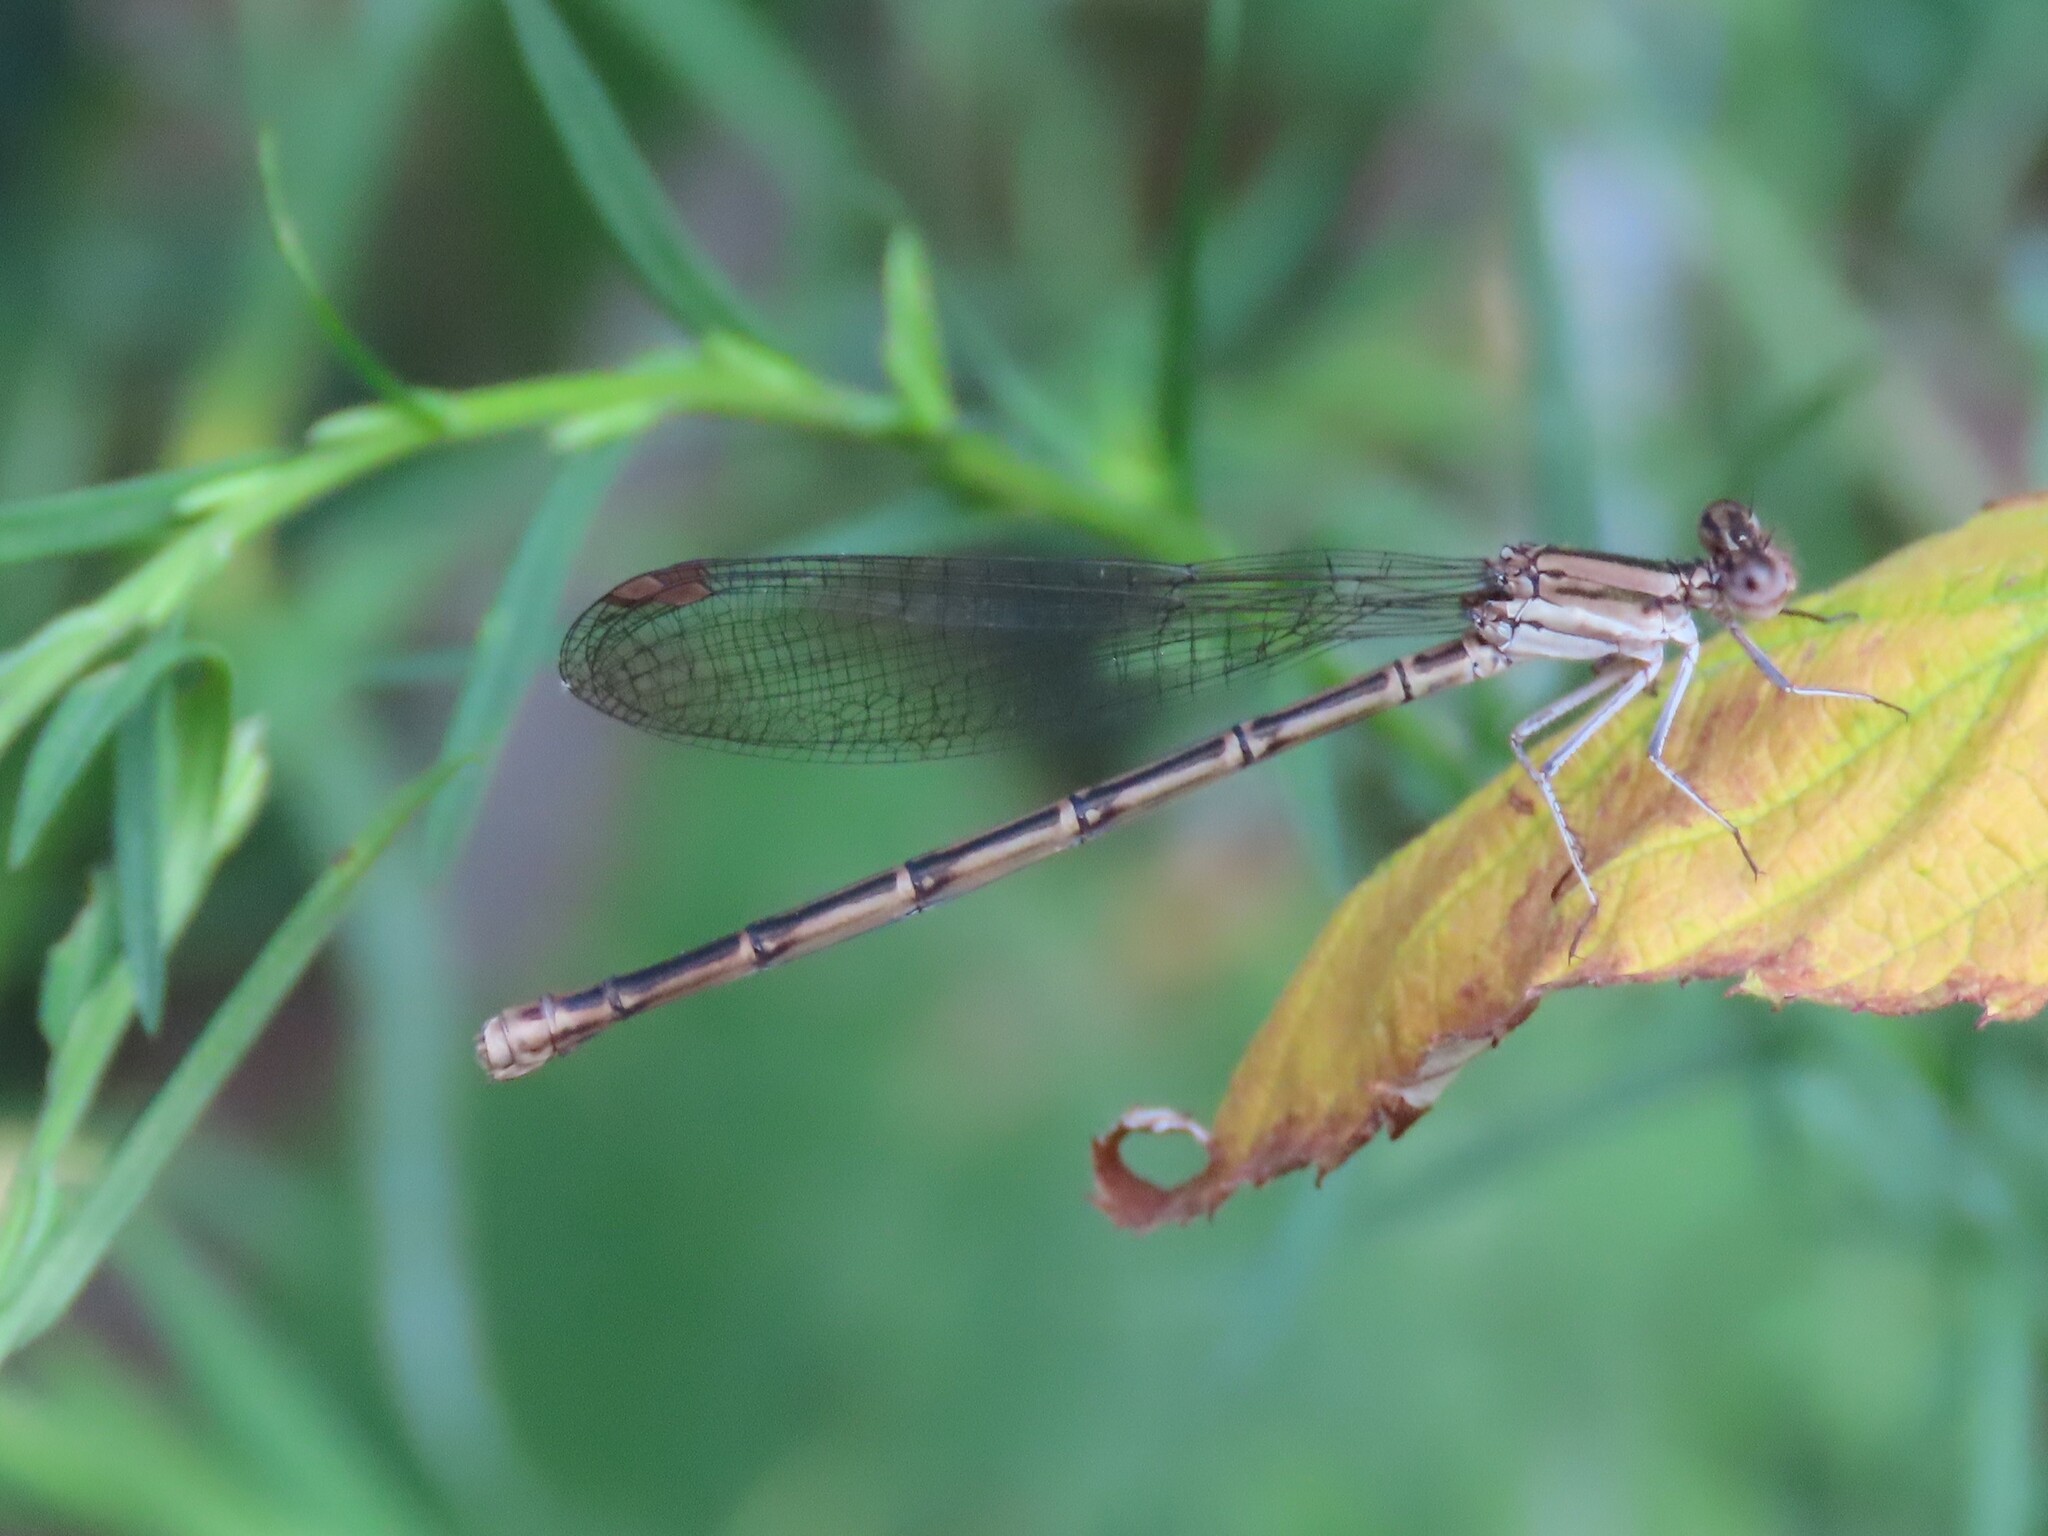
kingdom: Animalia
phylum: Arthropoda
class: Insecta
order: Odonata
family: Coenagrionidae
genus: Argia
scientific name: Argia fumipennis
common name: Variable dancer
